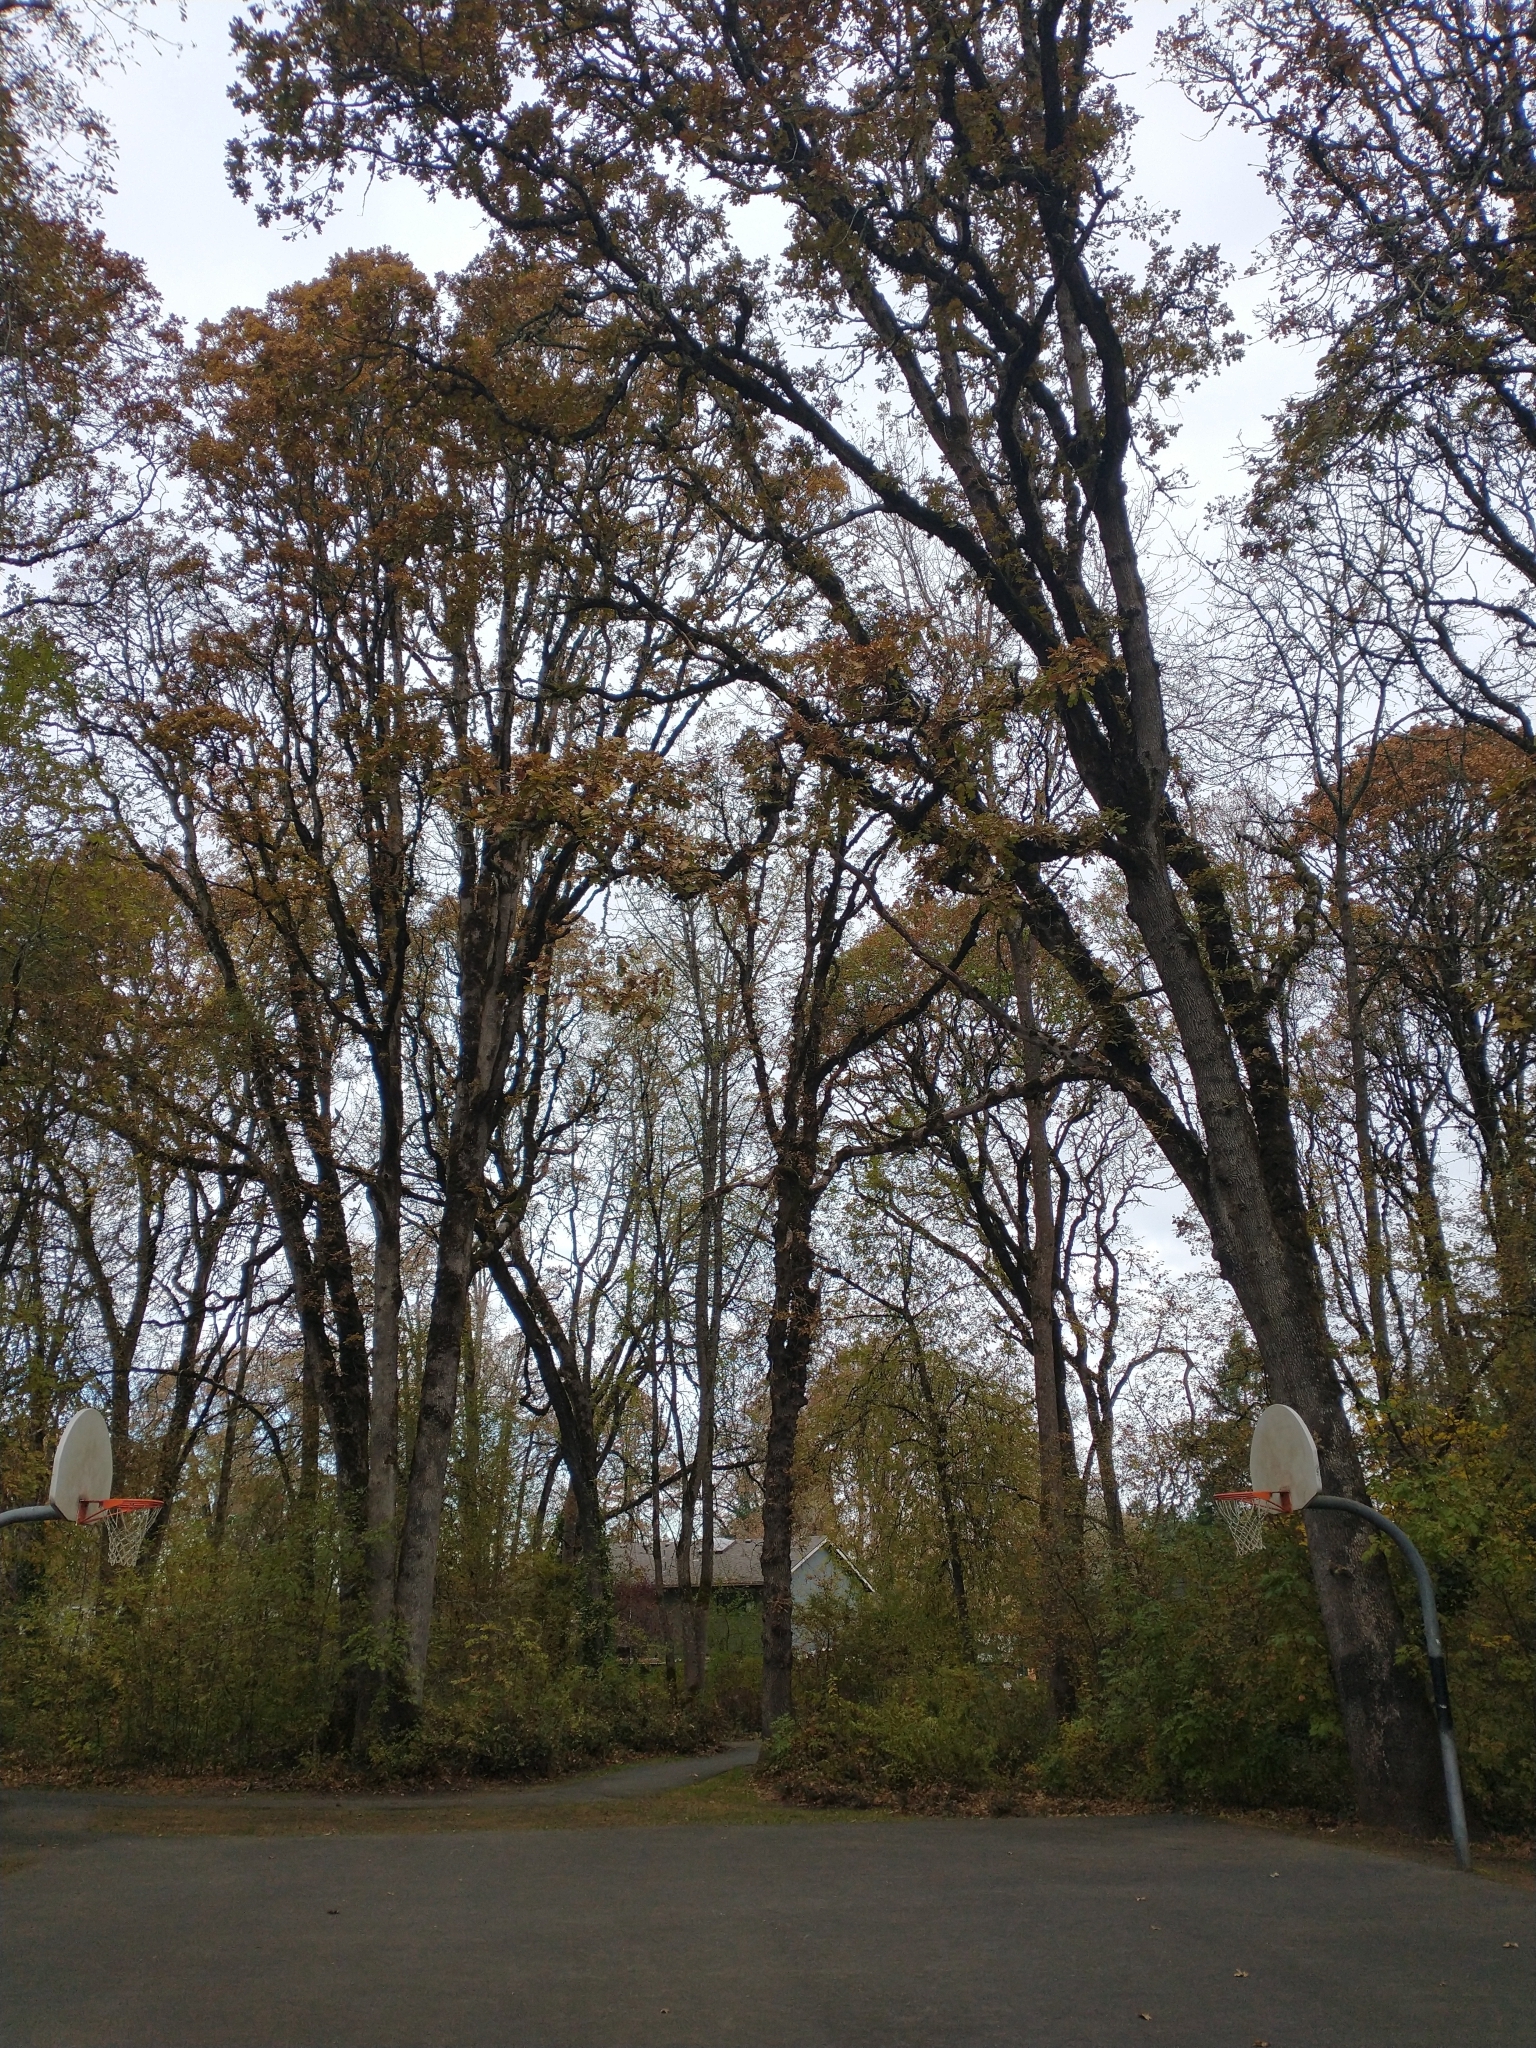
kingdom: Plantae
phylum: Tracheophyta
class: Magnoliopsida
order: Fagales
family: Fagaceae
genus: Quercus
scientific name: Quercus garryana
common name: Garry oak
